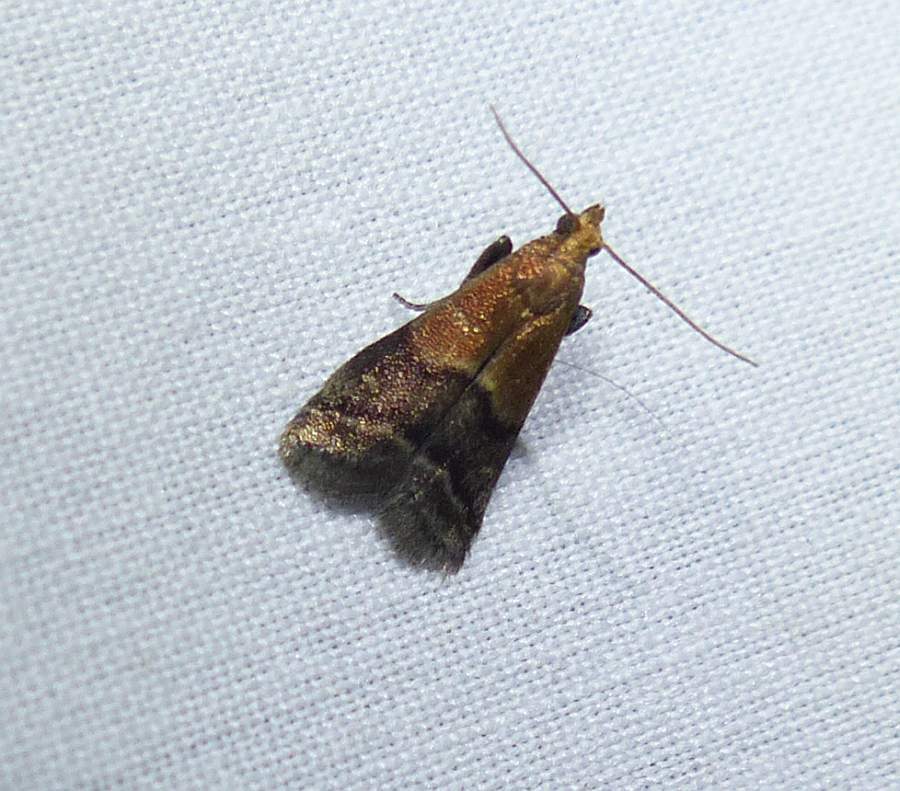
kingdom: Animalia
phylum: Arthropoda
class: Insecta
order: Lepidoptera
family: Pyralidae
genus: Eulogia
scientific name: Eulogia ochrifrontella
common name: Broad-banded eulogia moth
